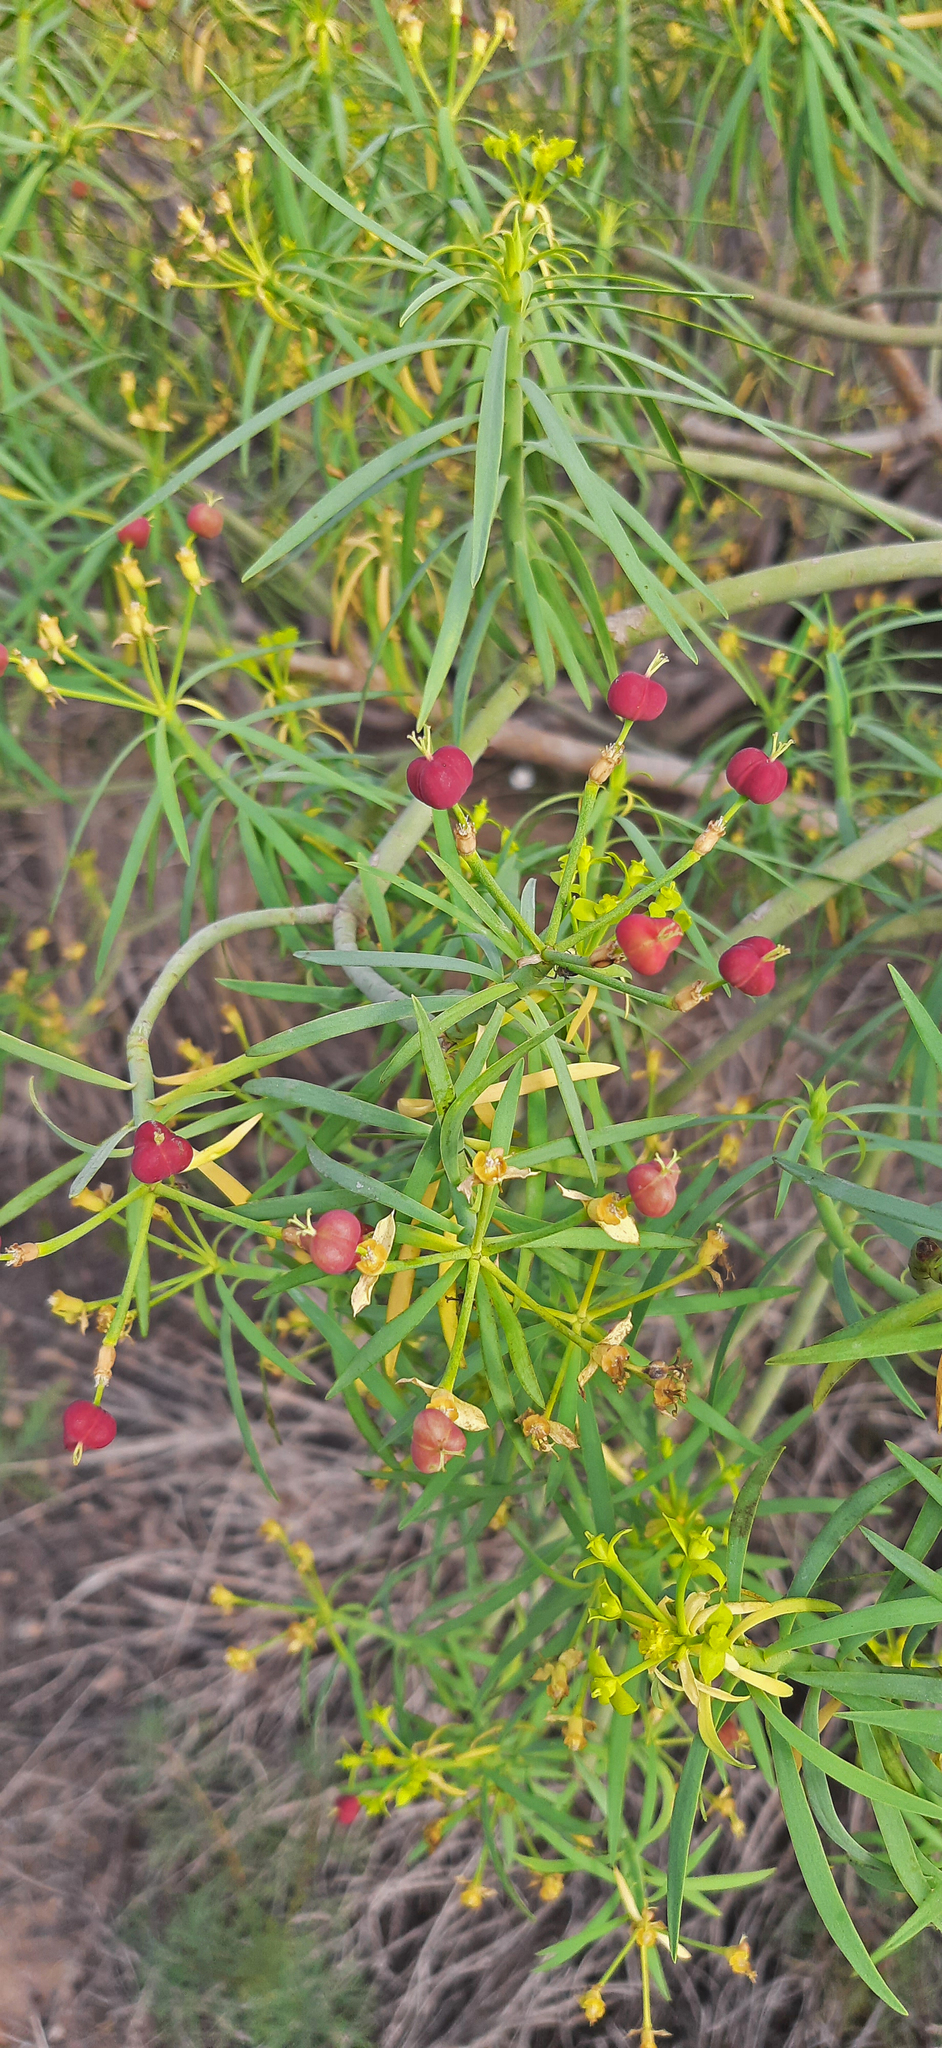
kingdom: Plantae
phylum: Tracheophyta
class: Magnoliopsida
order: Malpighiales
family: Euphorbiaceae
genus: Euphorbia
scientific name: Euphorbia lamarckii
